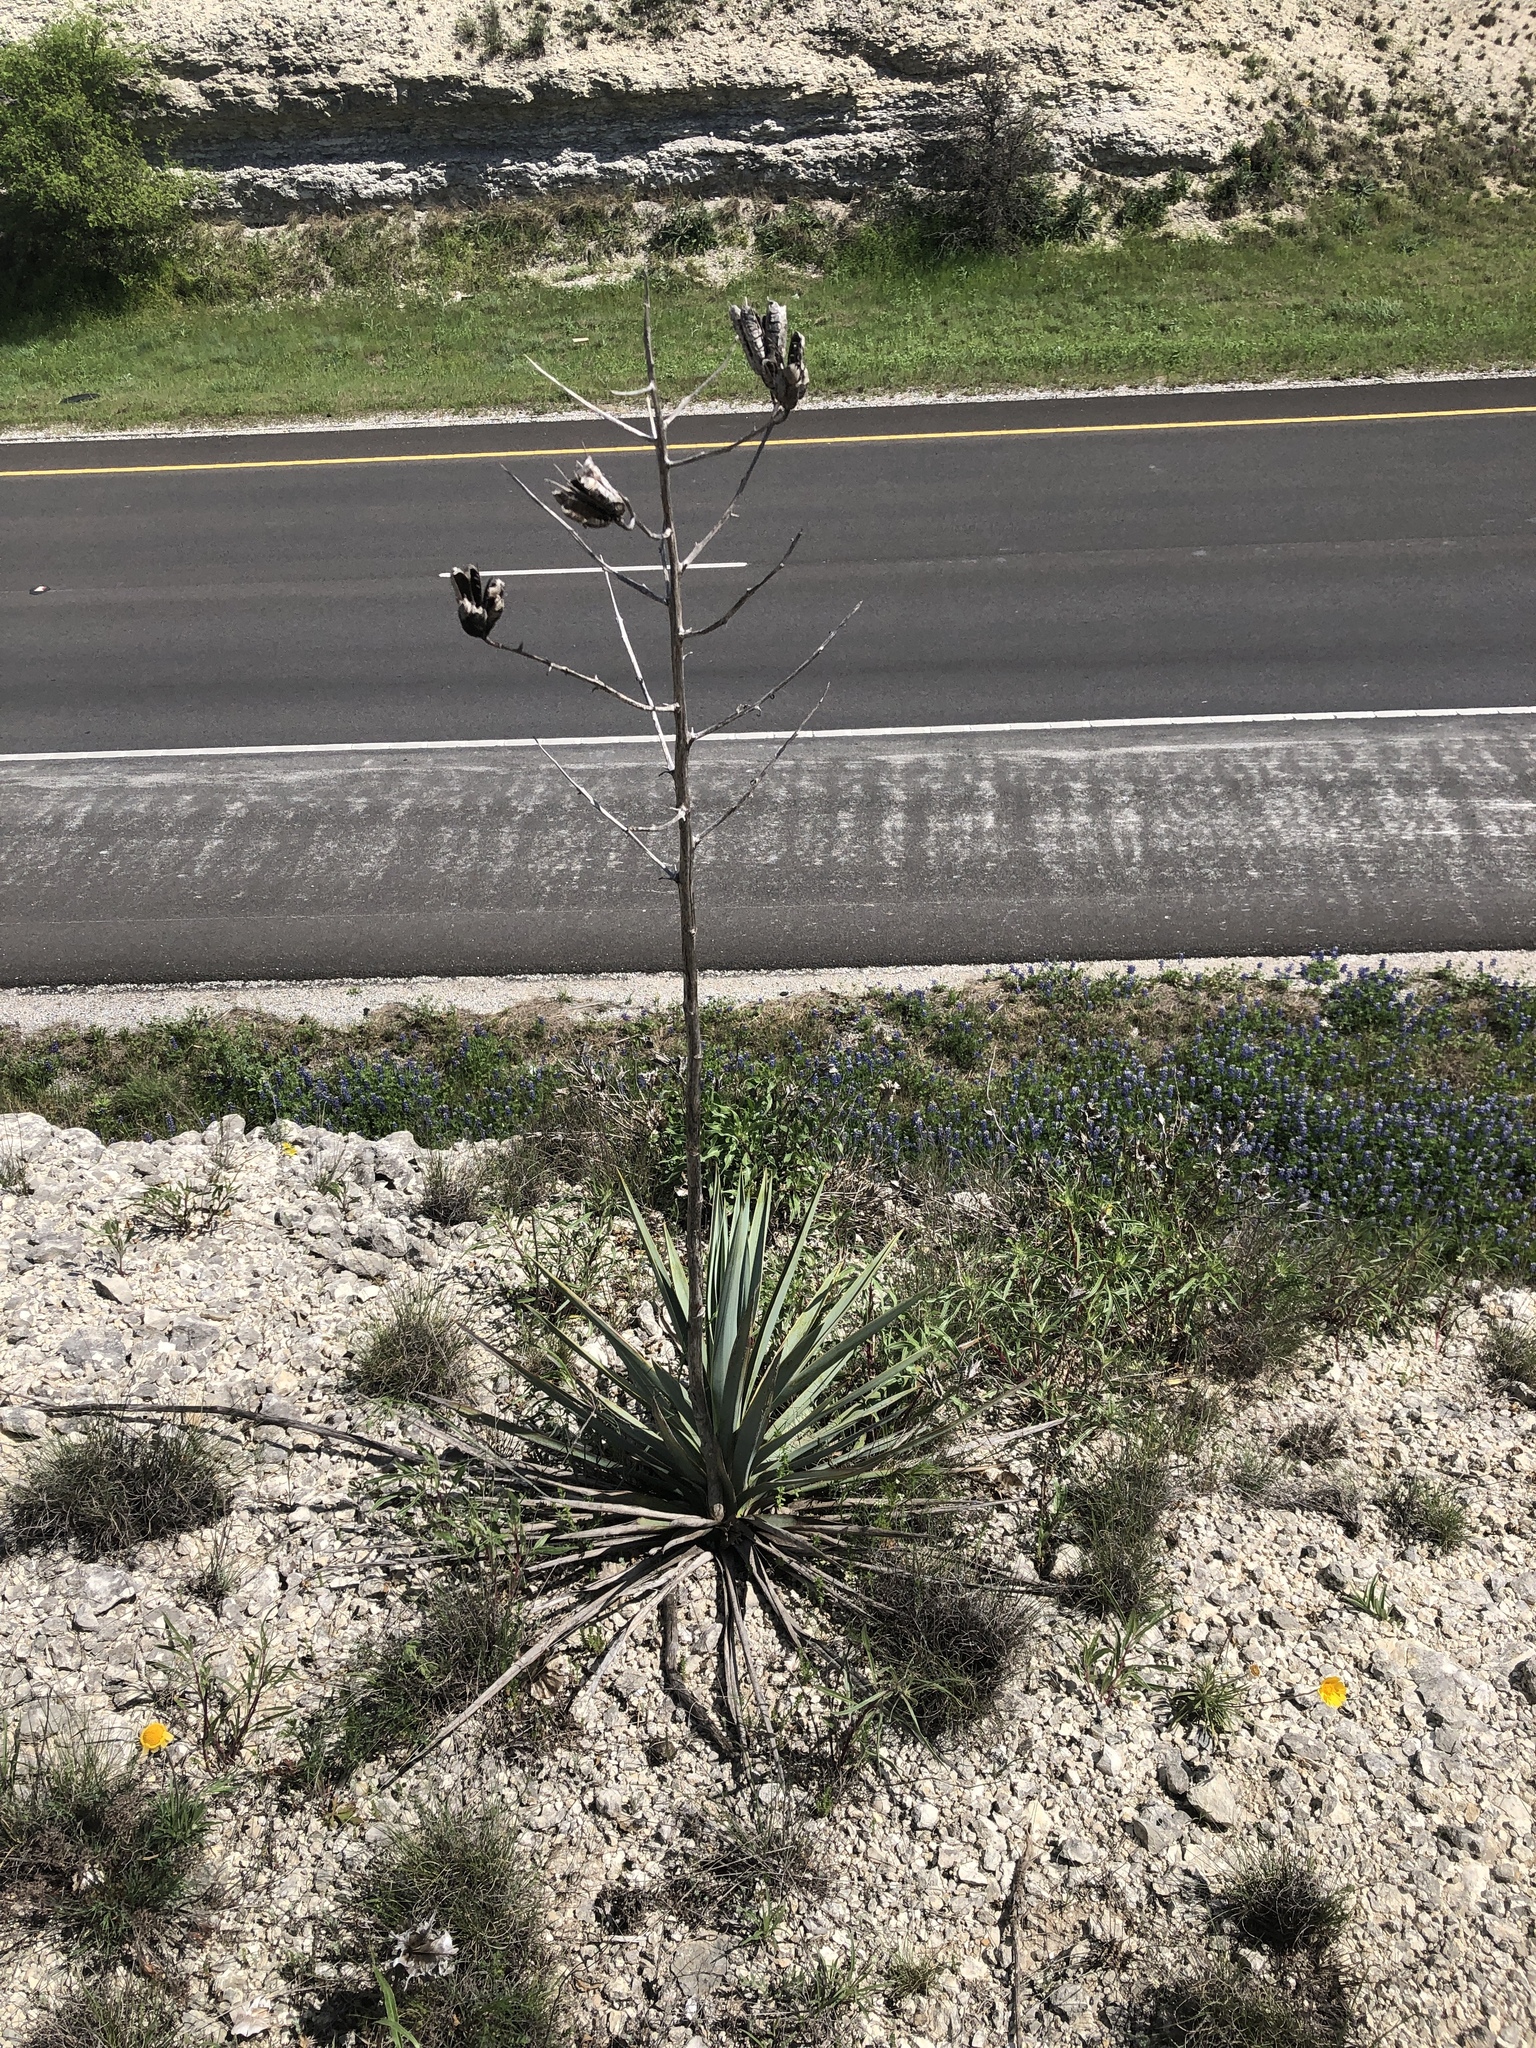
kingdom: Plantae
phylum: Tracheophyta
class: Liliopsida
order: Asparagales
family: Asparagaceae
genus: Yucca
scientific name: Yucca pallida
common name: Pale leaf yucca
